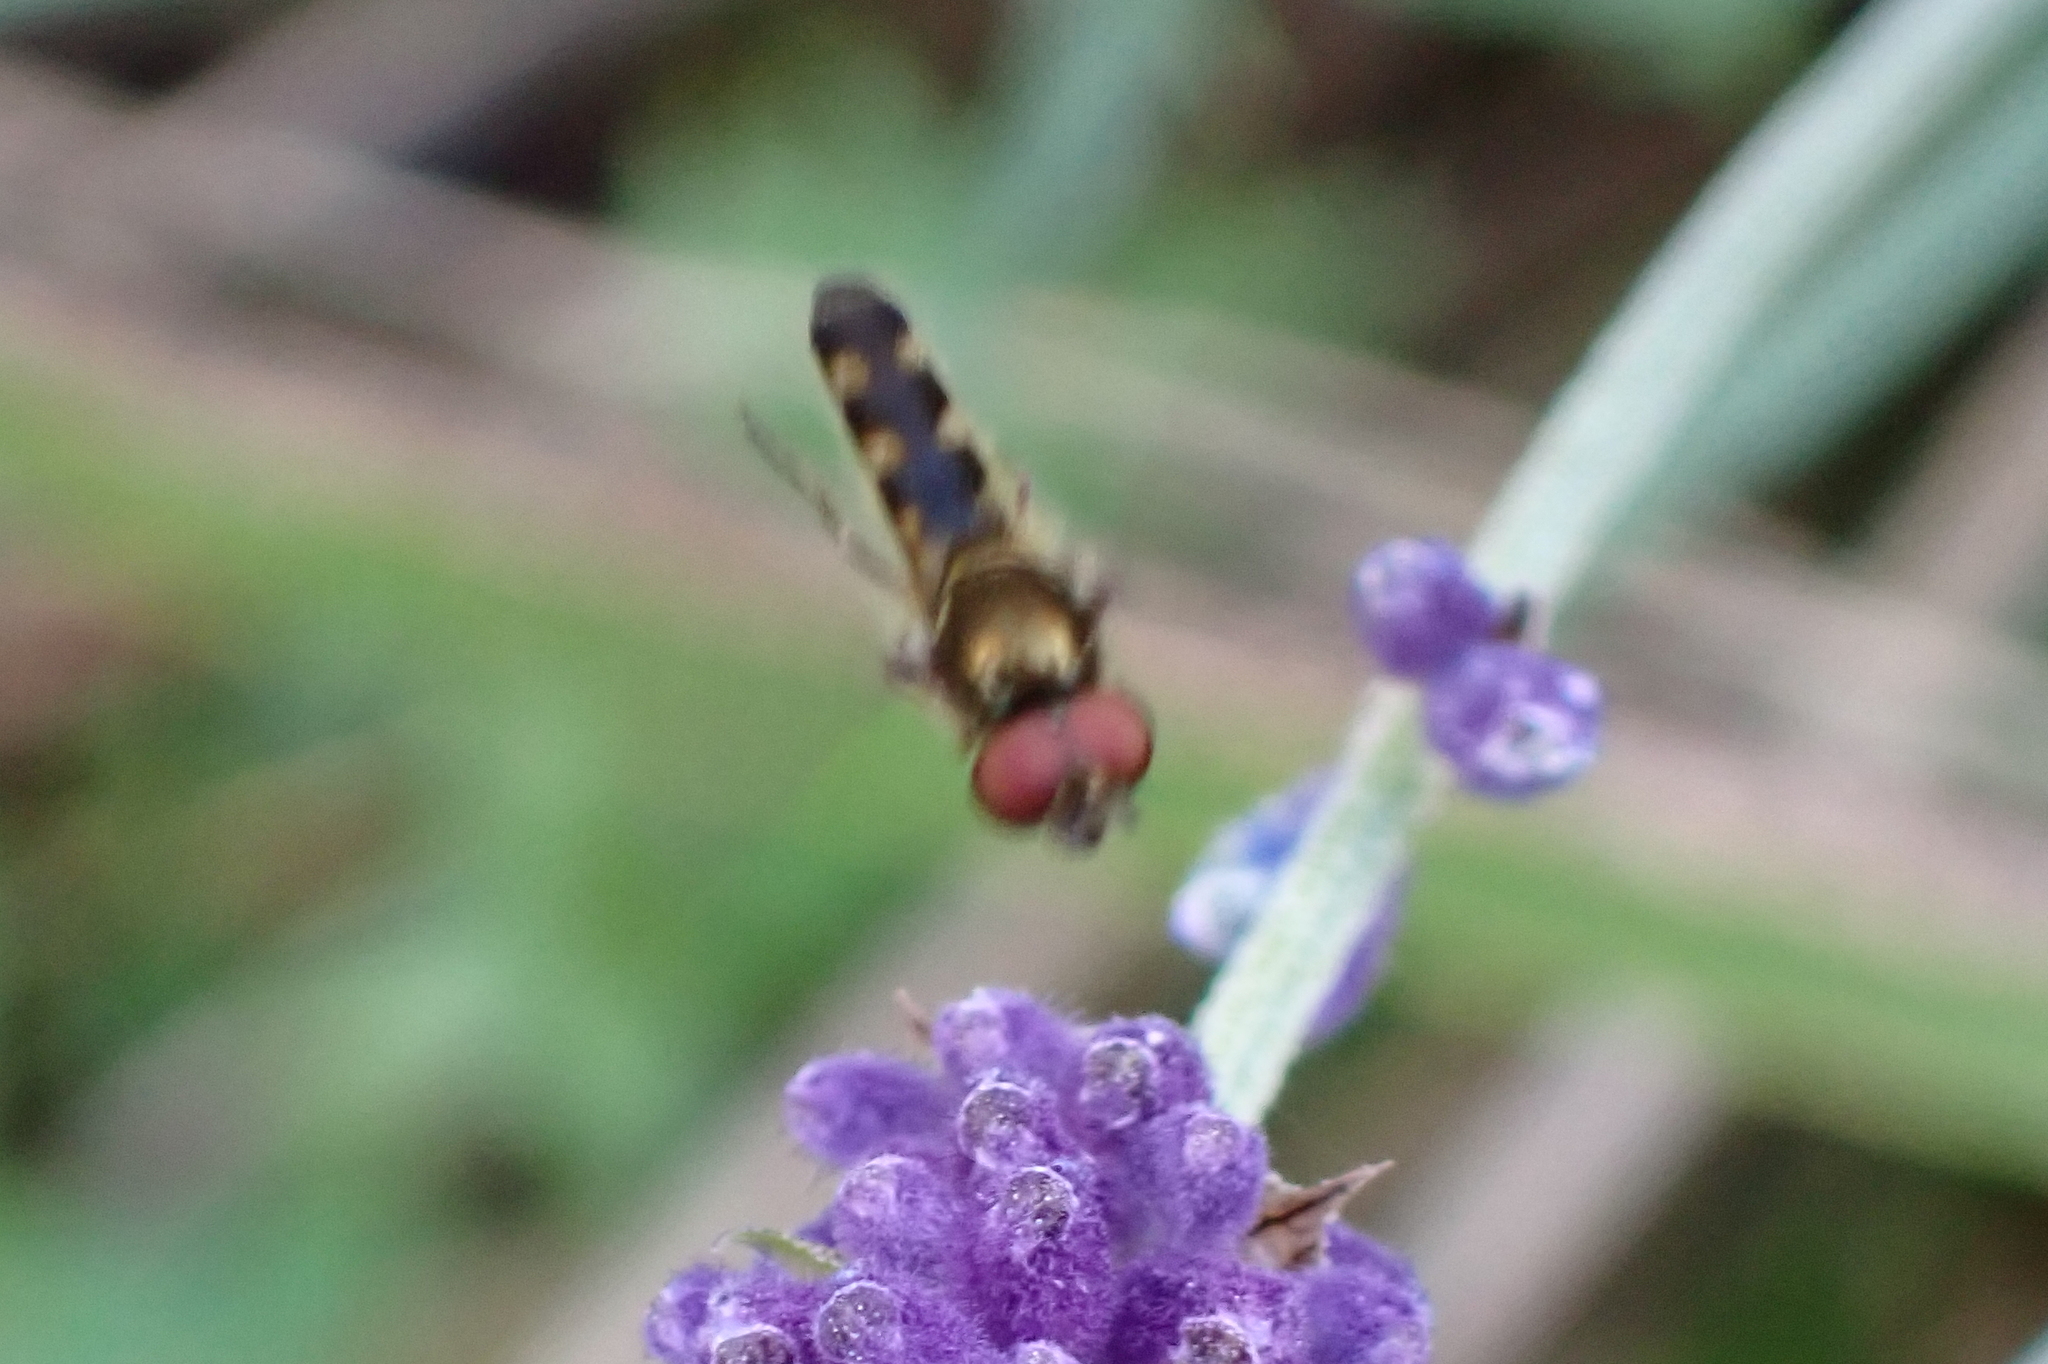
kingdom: Animalia
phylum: Arthropoda
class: Insecta
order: Diptera
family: Syrphidae
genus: Platycheirus
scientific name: Platycheirus albimanus
